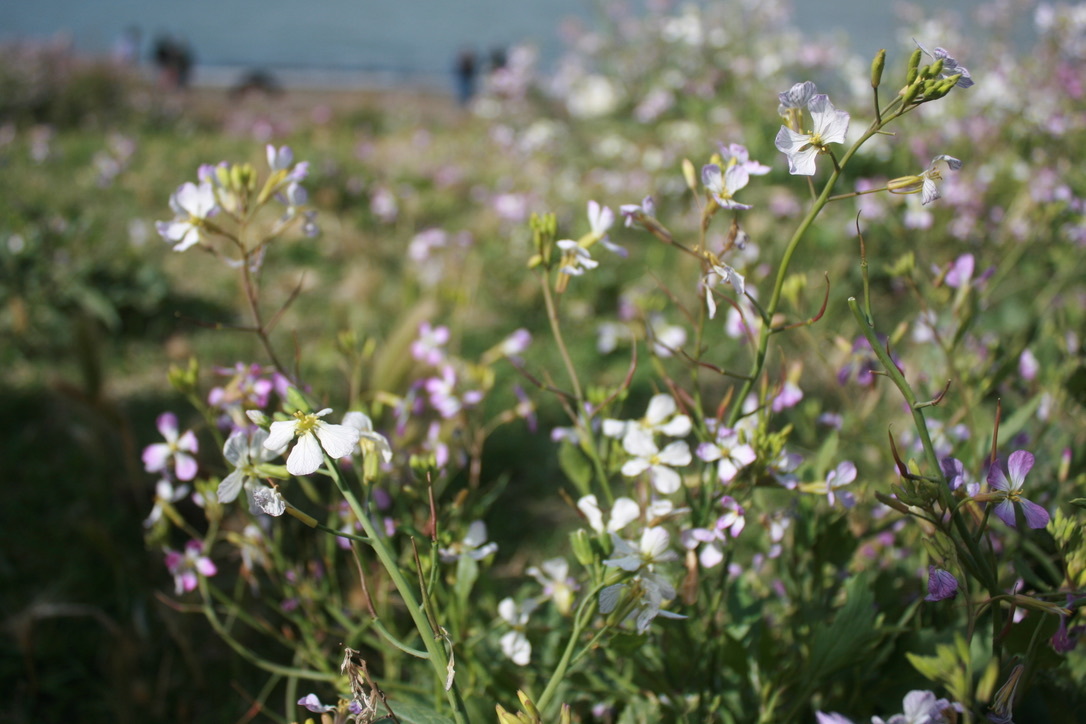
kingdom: Plantae
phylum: Tracheophyta
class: Magnoliopsida
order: Brassicales
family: Brassicaceae
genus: Raphanus
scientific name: Raphanus sativus
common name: Cultivated radish
